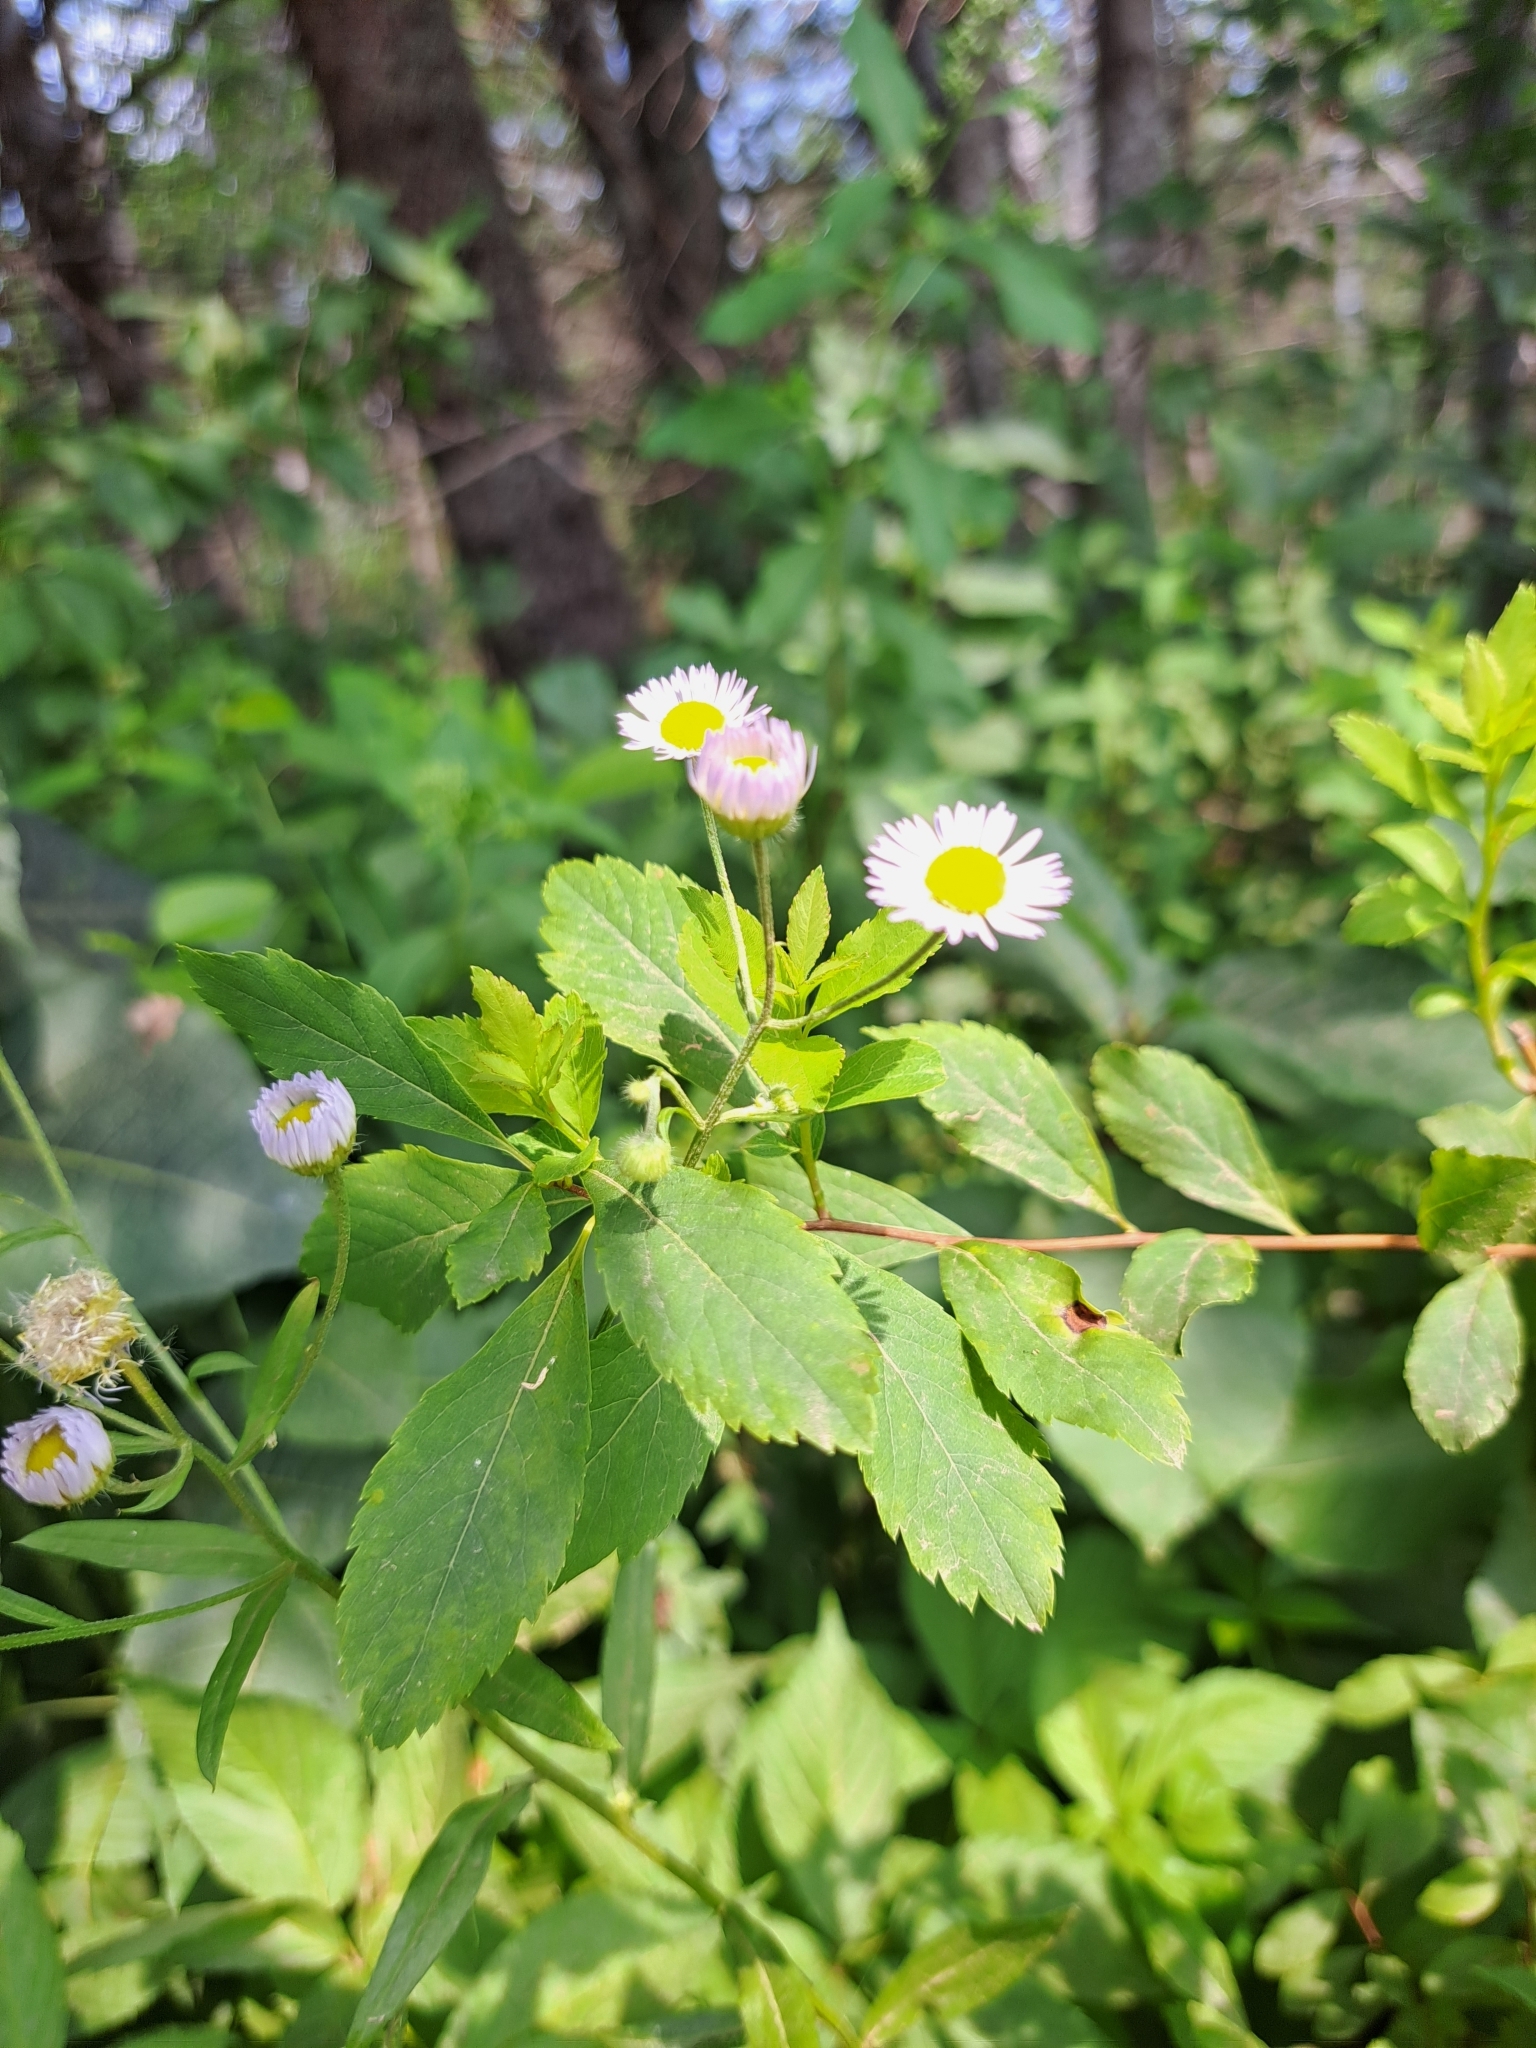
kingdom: Plantae
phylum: Tracheophyta
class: Magnoliopsida
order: Asterales
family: Asteraceae
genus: Erigeron
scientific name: Erigeron strigosus
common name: Common eastern fleabane
